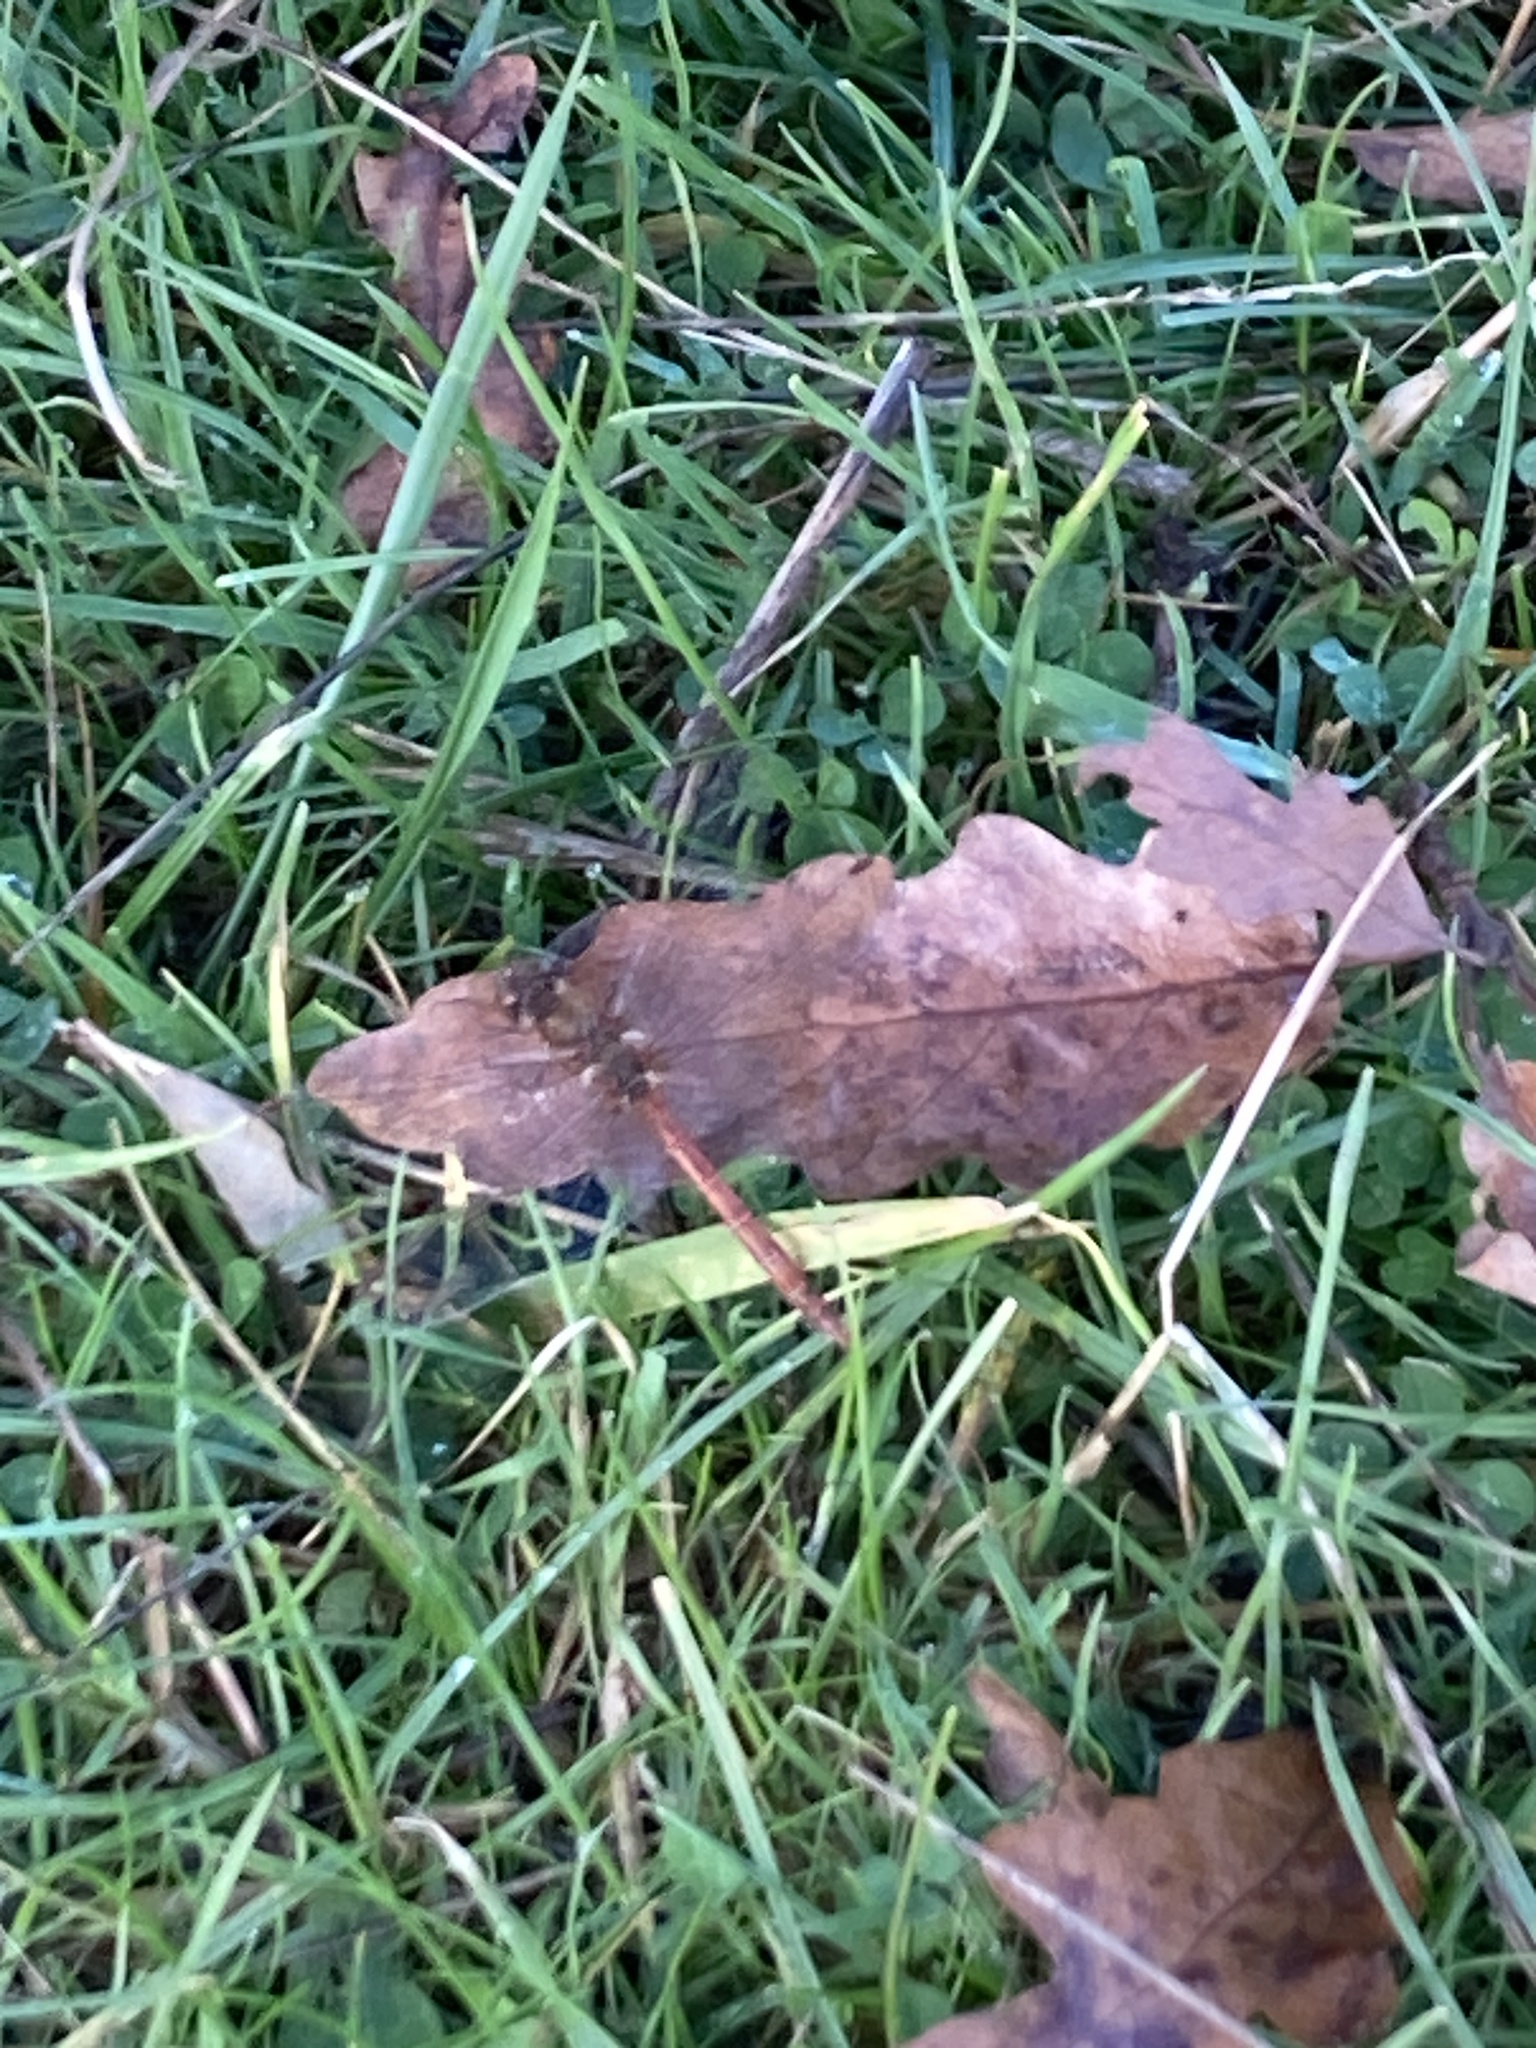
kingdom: Animalia
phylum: Arthropoda
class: Insecta
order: Odonata
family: Libellulidae
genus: Sympetrum
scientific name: Sympetrum striolatum
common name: Common darter
